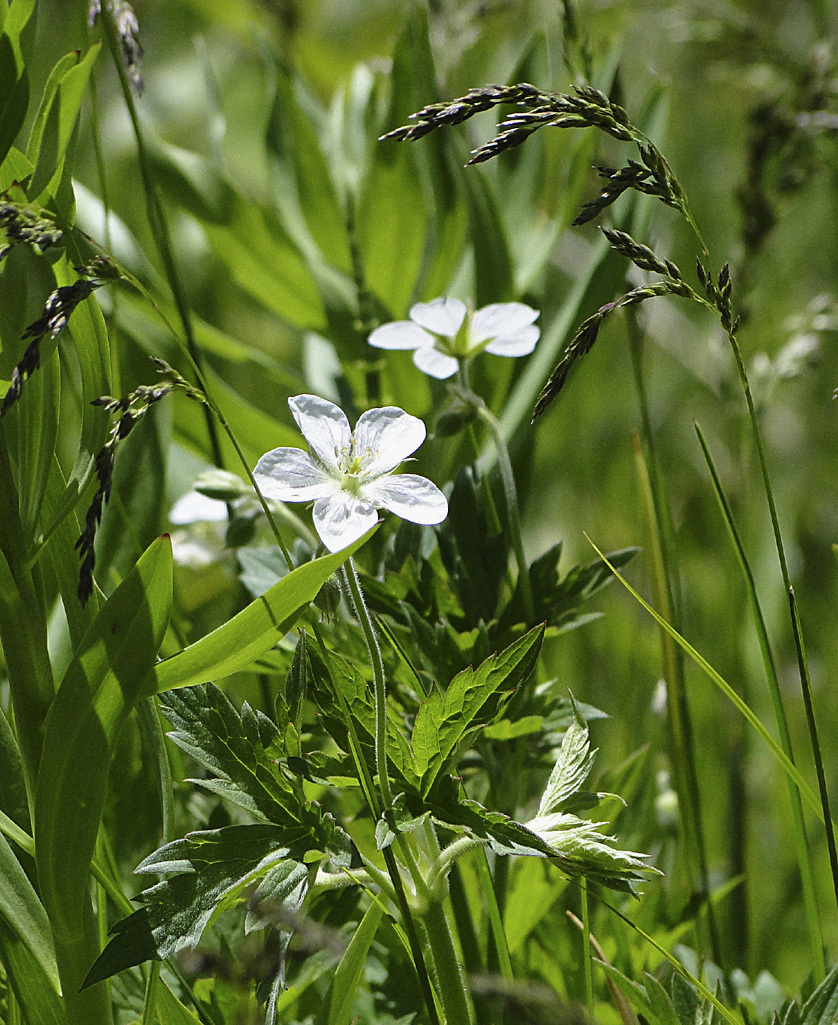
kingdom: Plantae
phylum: Tracheophyta
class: Magnoliopsida
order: Geraniales
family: Geraniaceae
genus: Geranium
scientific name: Geranium richardsonii
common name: Richardson's crane's-bill
